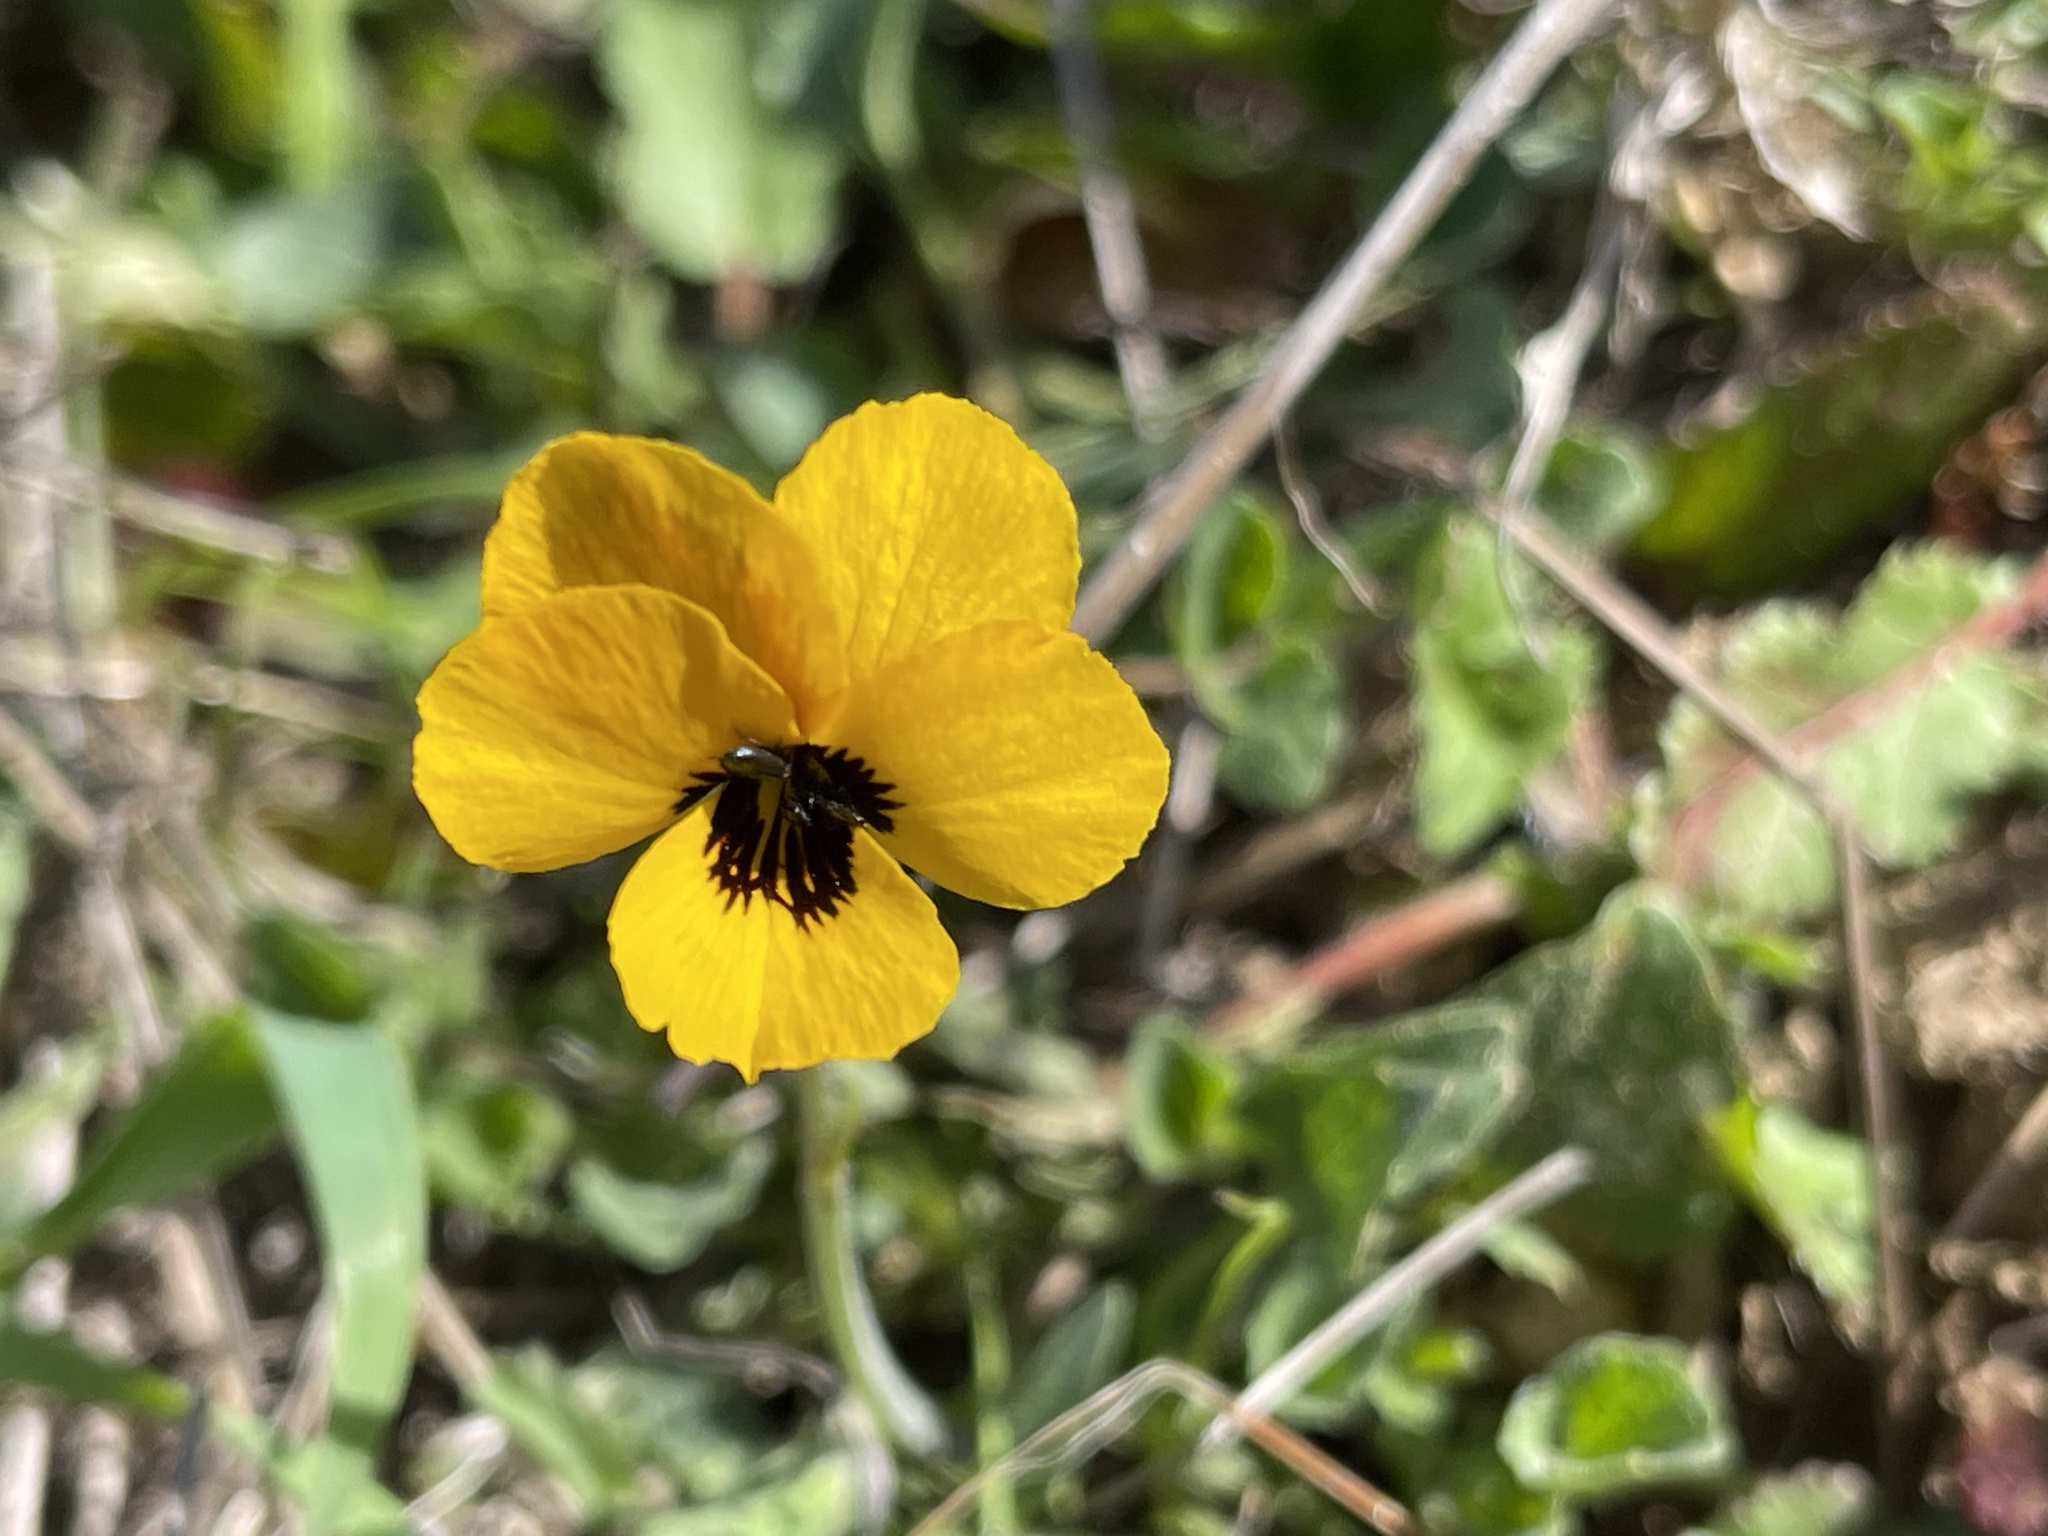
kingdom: Plantae
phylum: Tracheophyta
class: Magnoliopsida
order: Malpighiales
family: Violaceae
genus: Viola
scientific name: Viola pedunculata
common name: California golden violet
